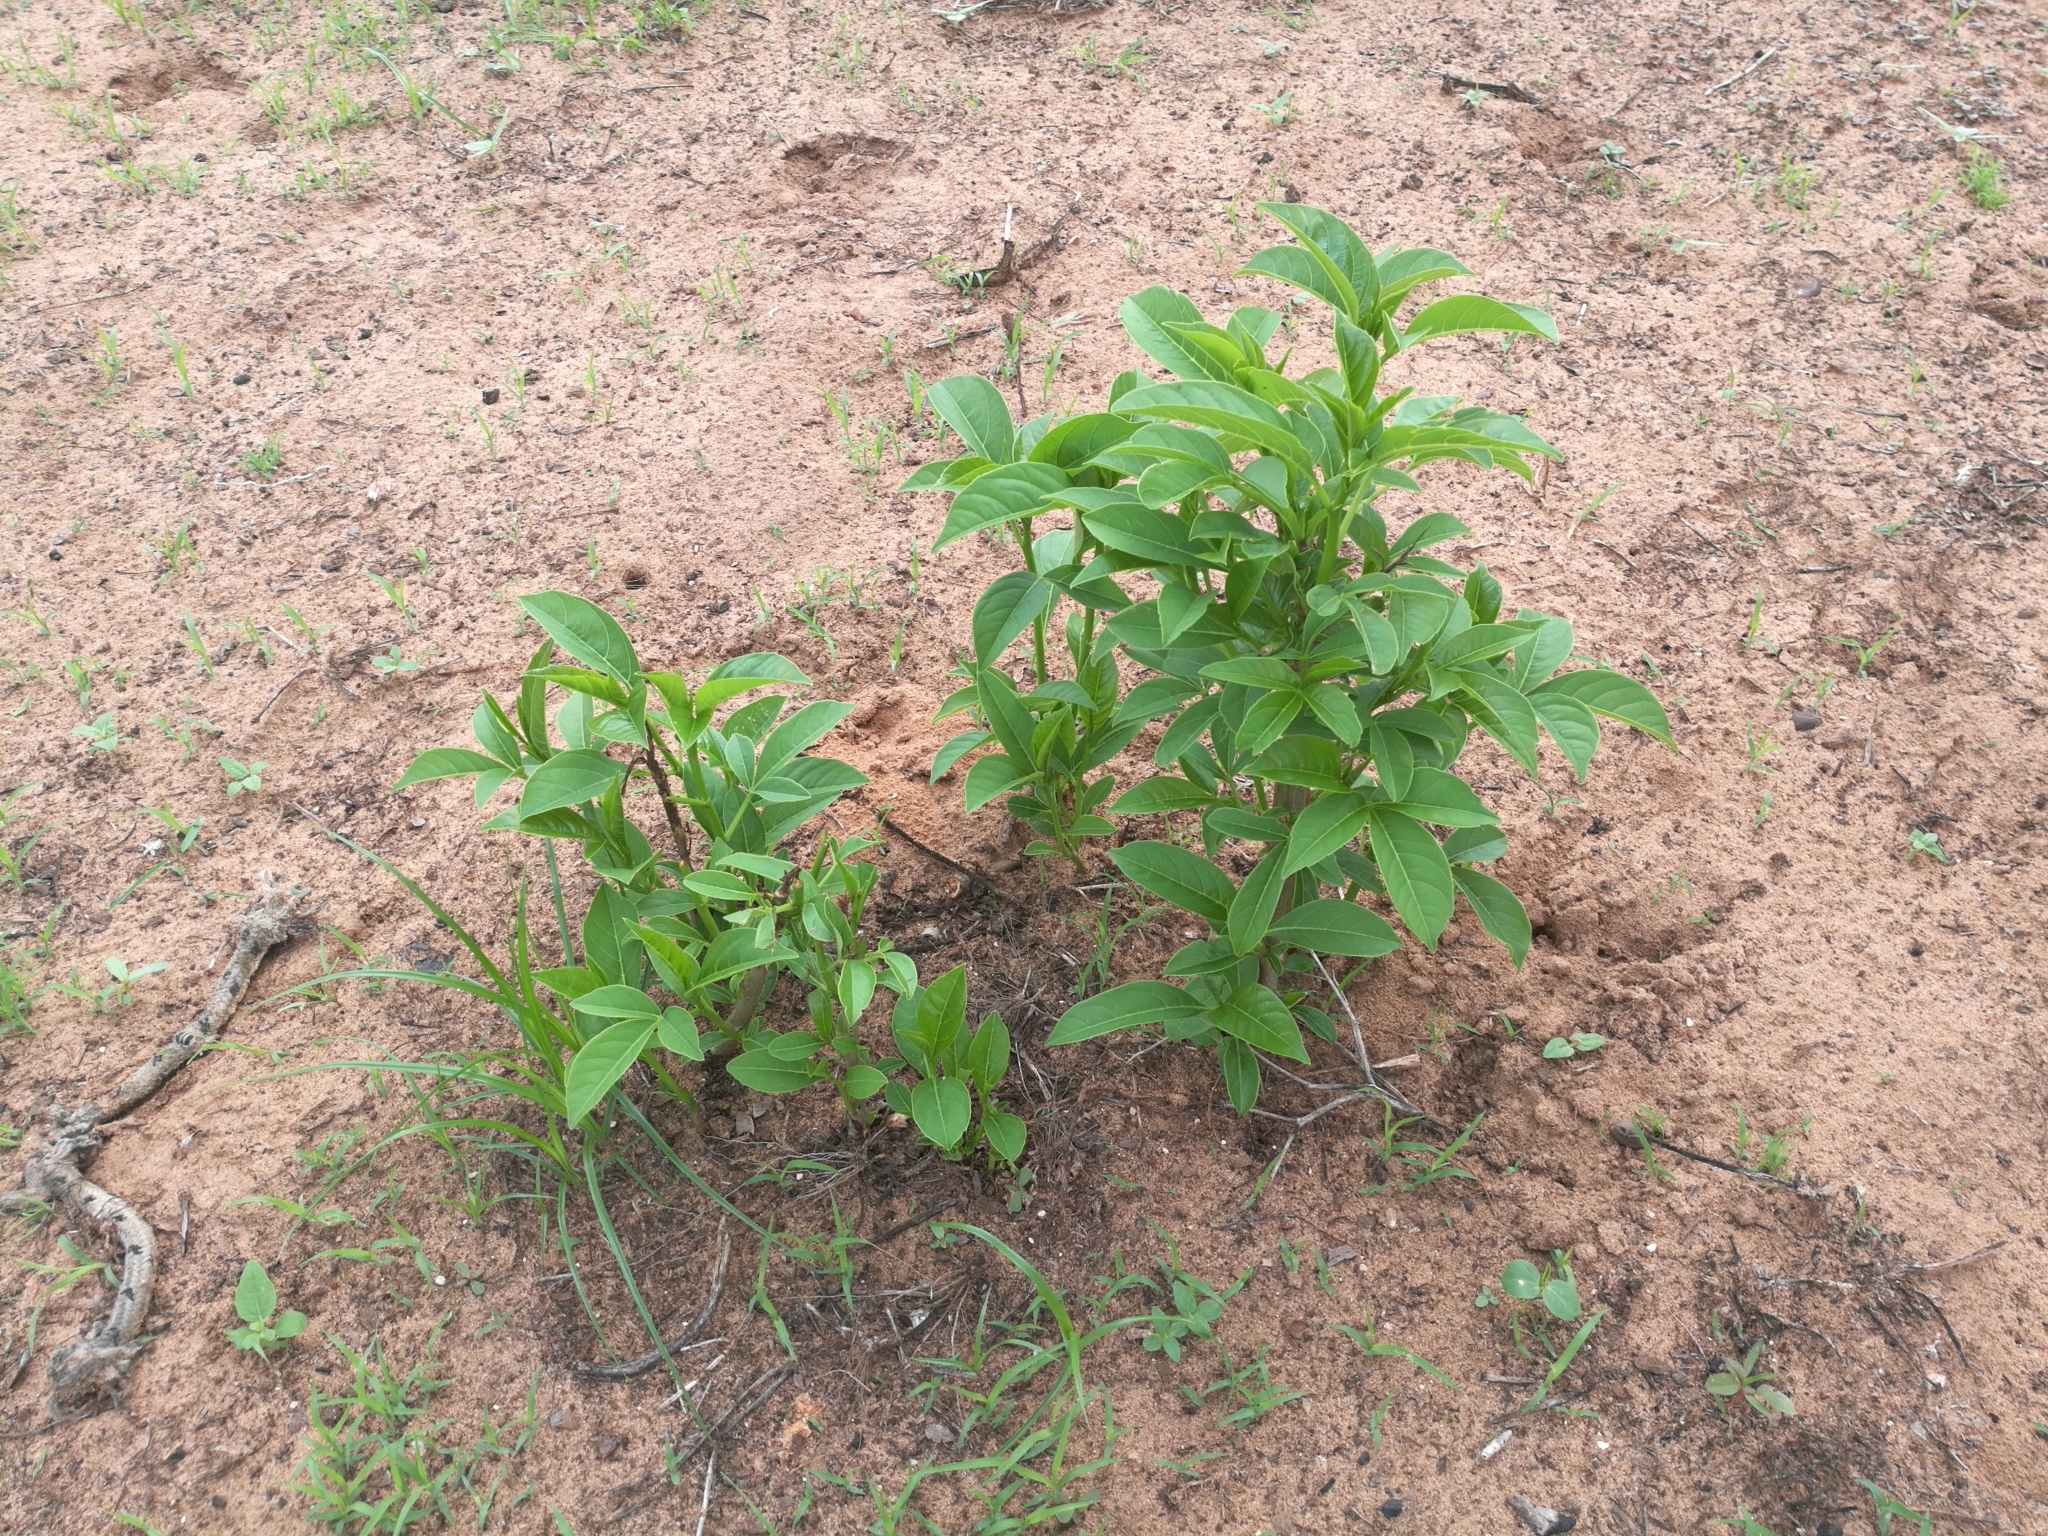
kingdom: Plantae
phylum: Tracheophyta
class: Magnoliopsida
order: Malvales
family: Malvaceae
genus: Adansonia
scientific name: Adansonia digitata
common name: Dead-rat-tree
